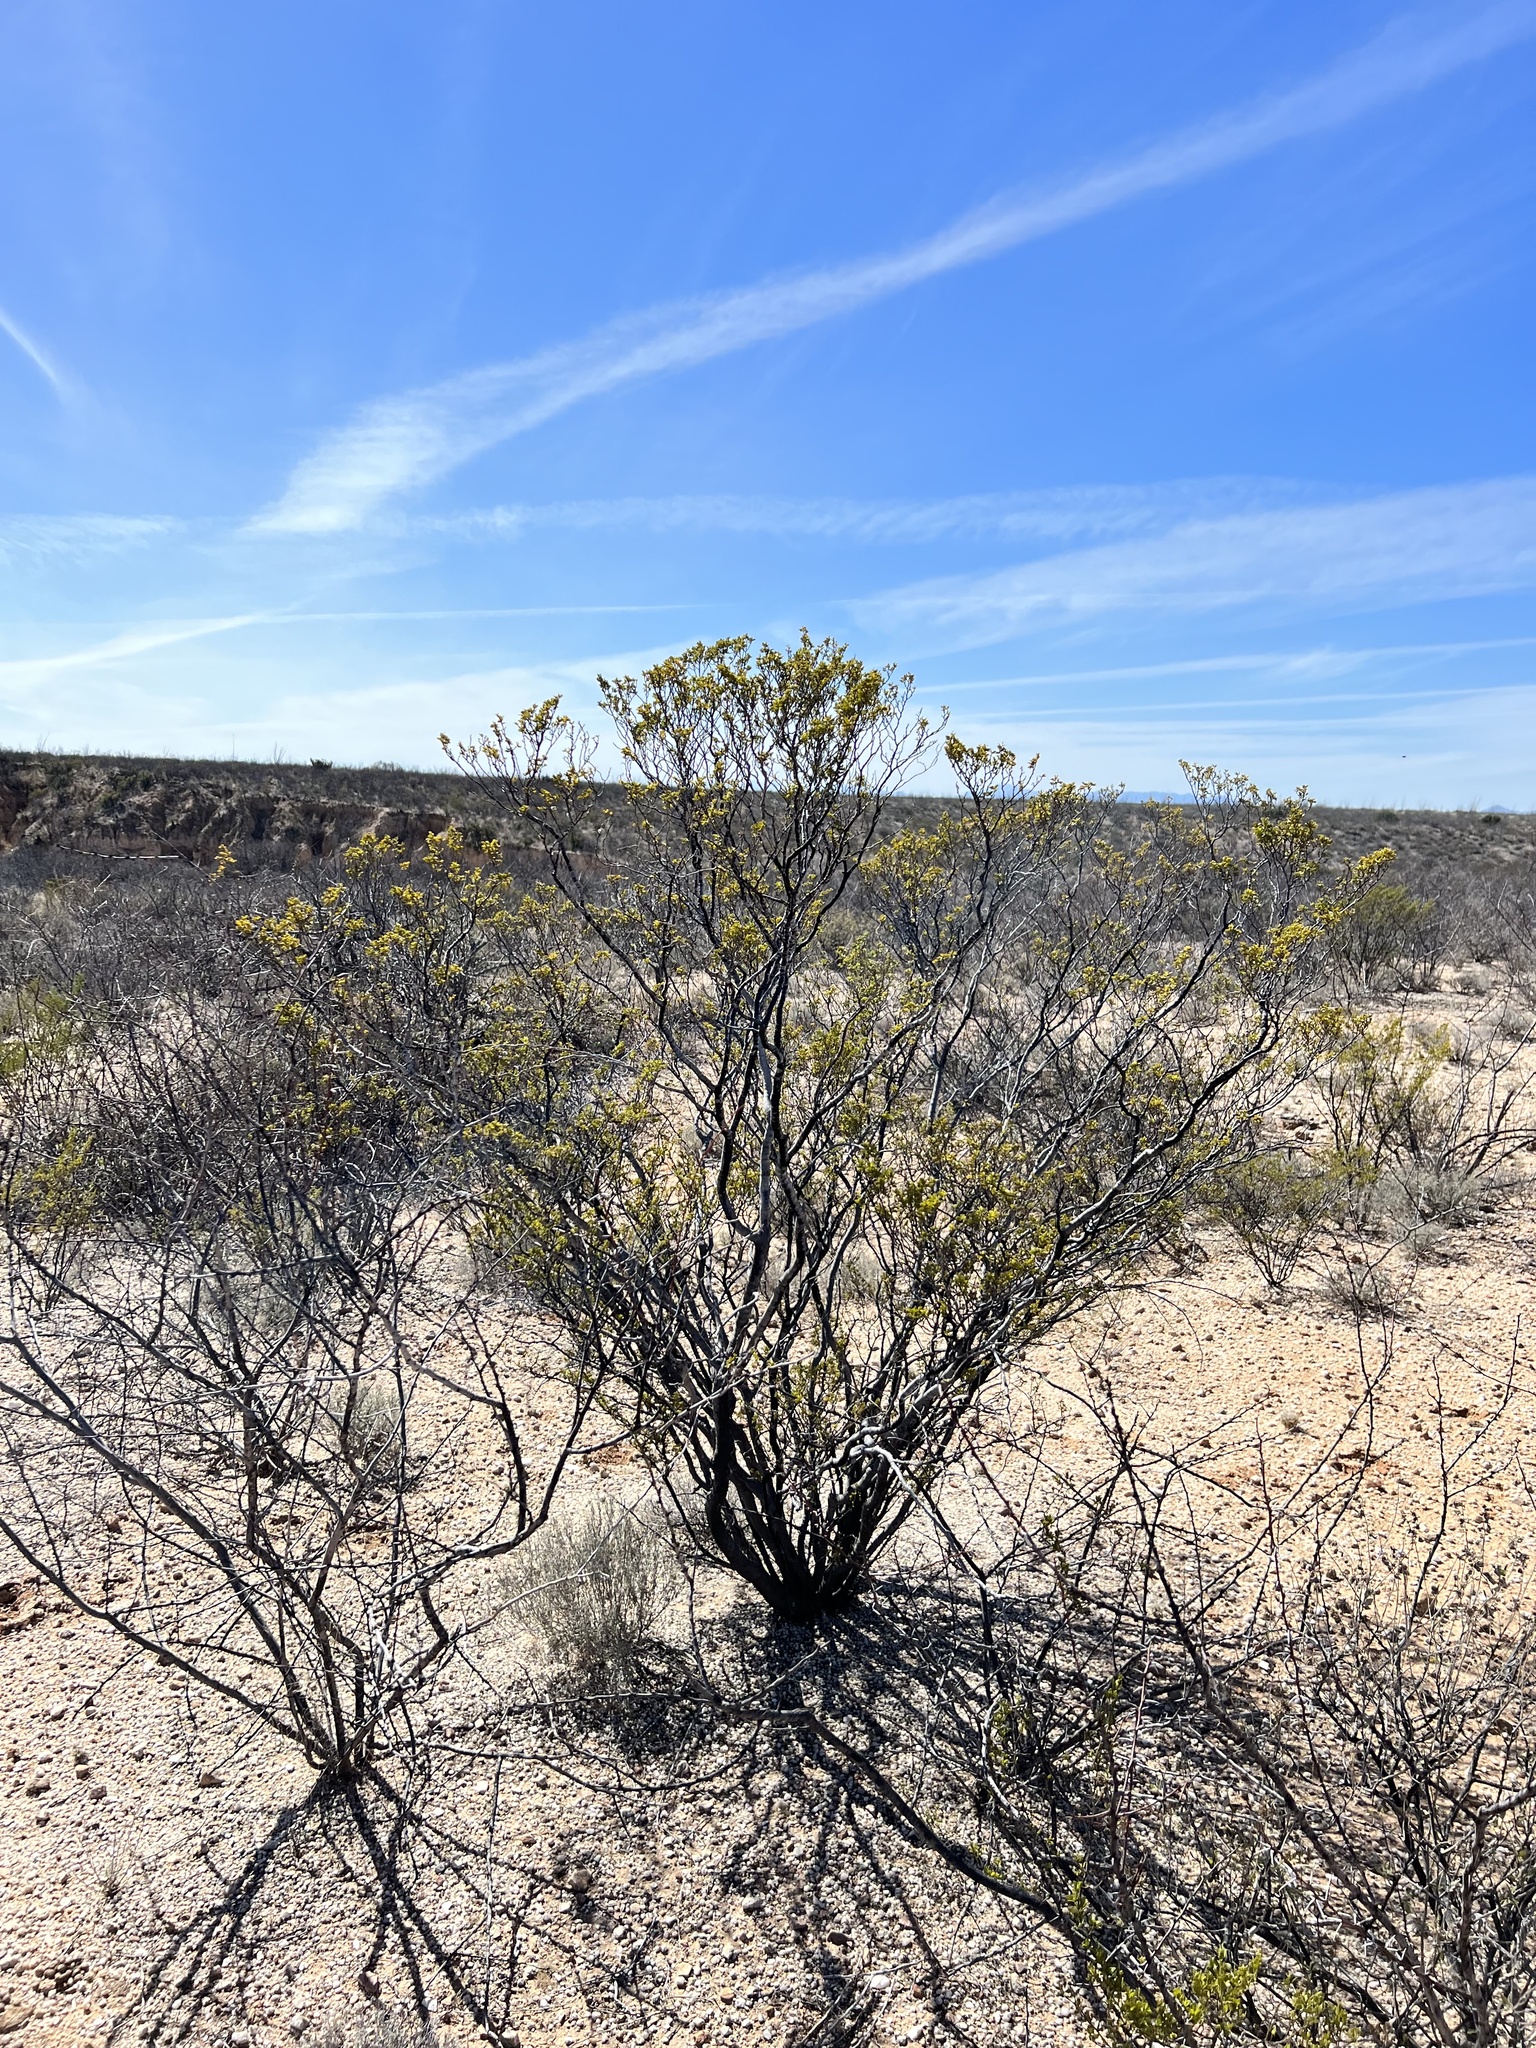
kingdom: Plantae
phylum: Tracheophyta
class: Magnoliopsida
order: Zygophyllales
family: Zygophyllaceae
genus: Larrea
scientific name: Larrea tridentata
